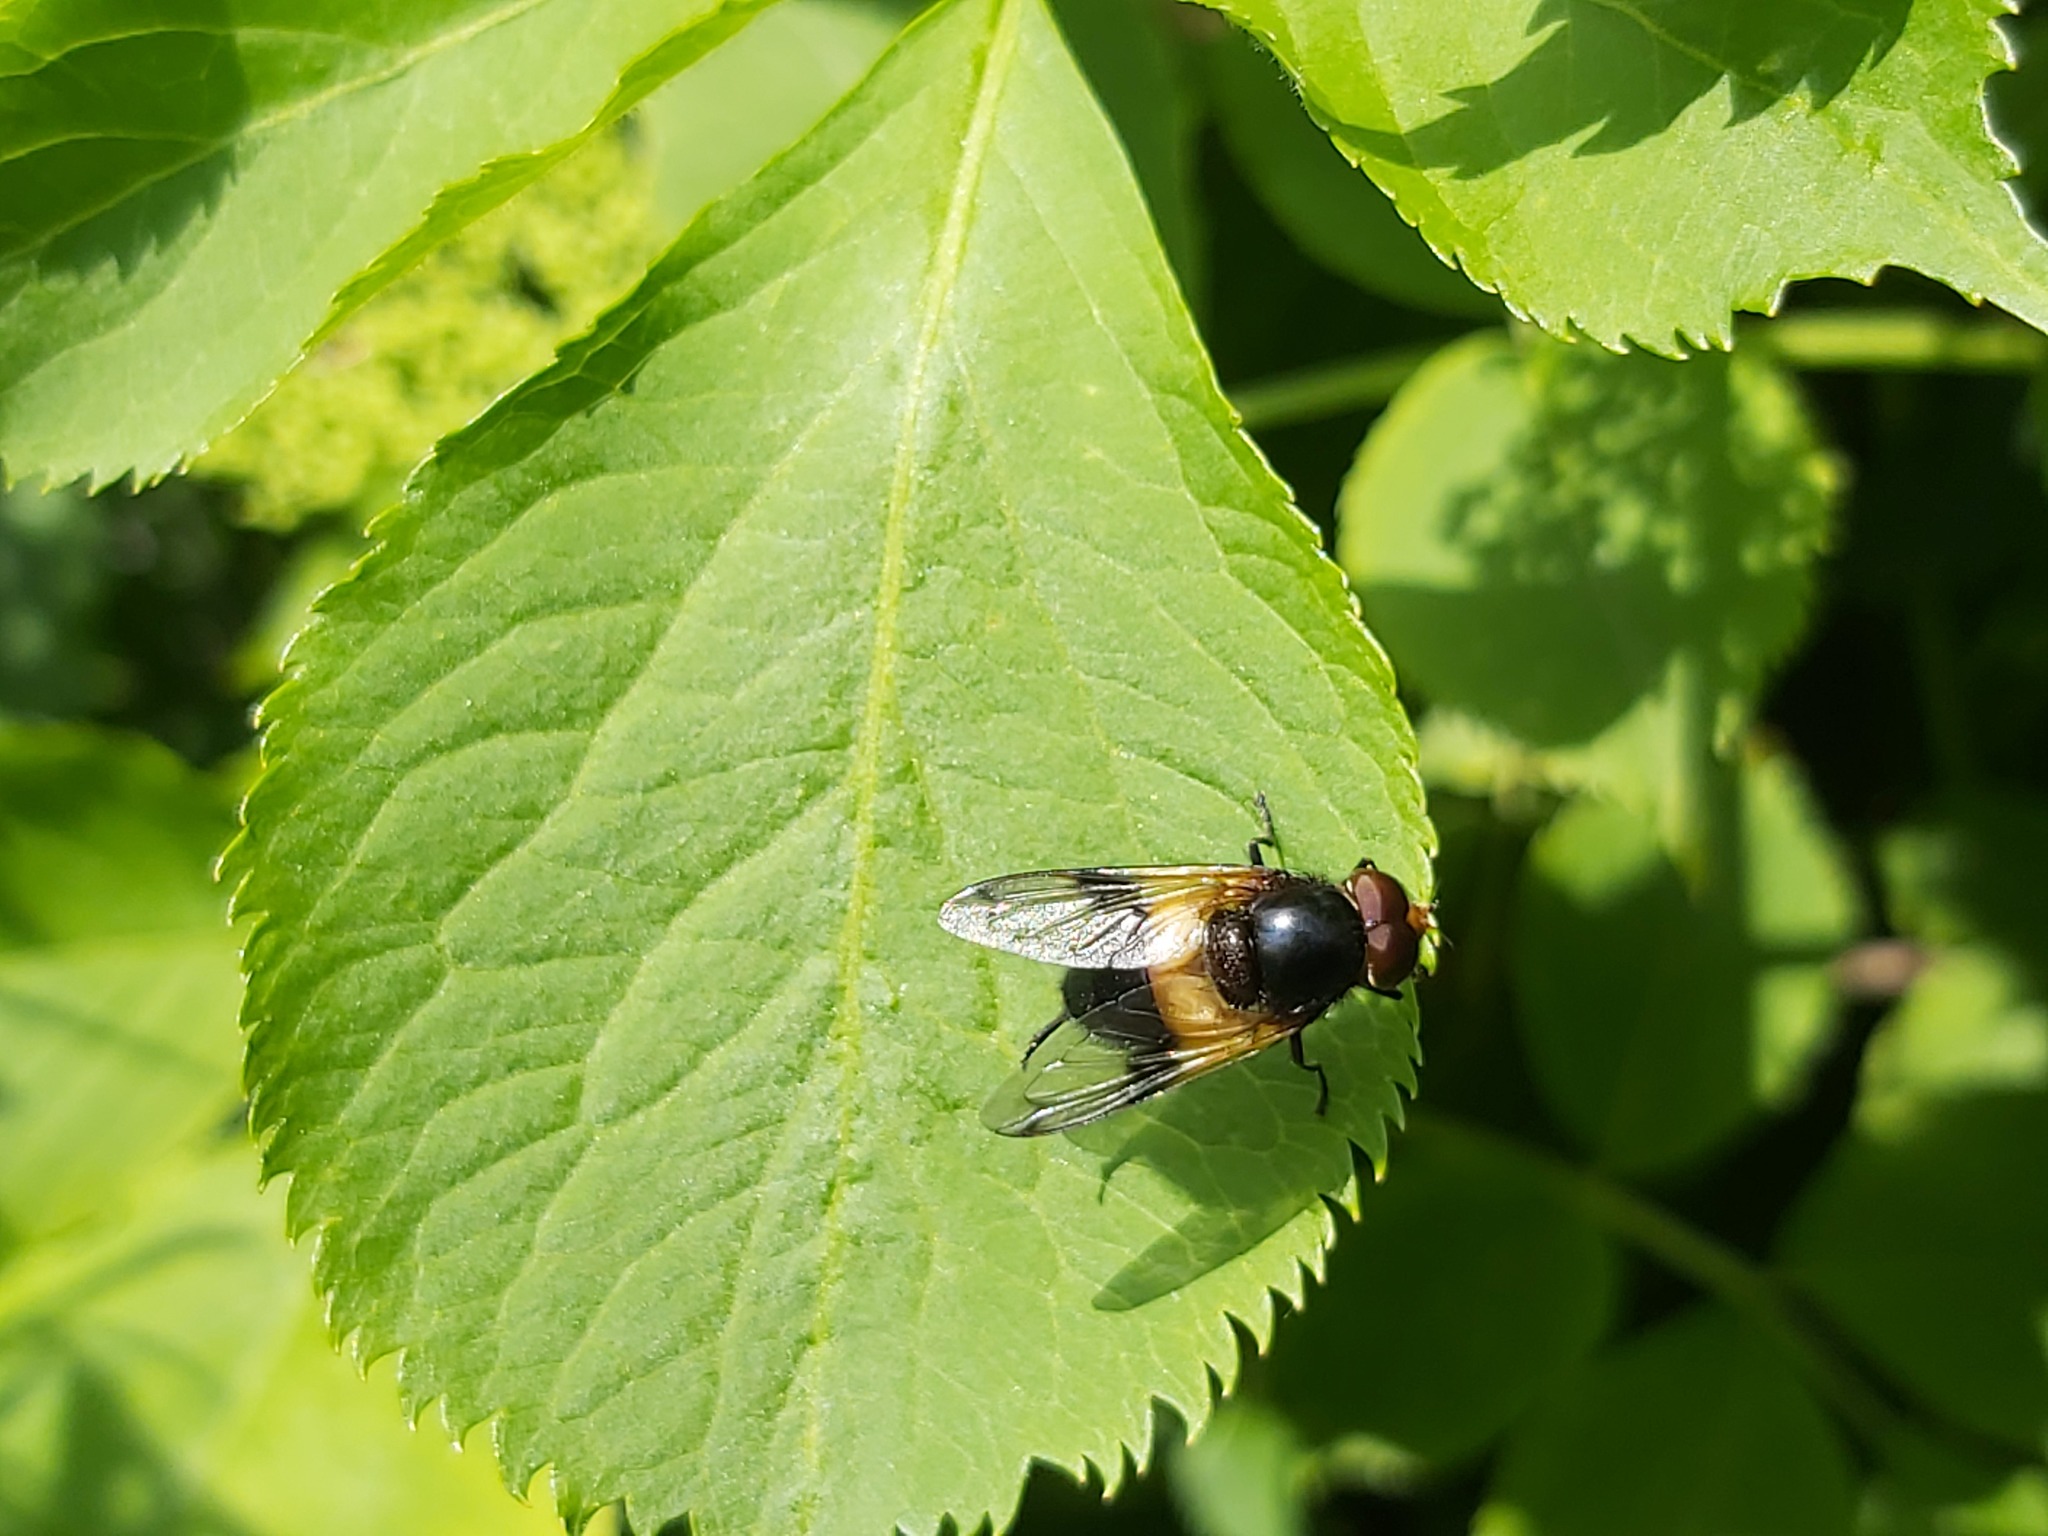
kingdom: Animalia
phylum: Arthropoda
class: Insecta
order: Diptera
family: Syrphidae
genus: Volucella
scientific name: Volucella pellucens
